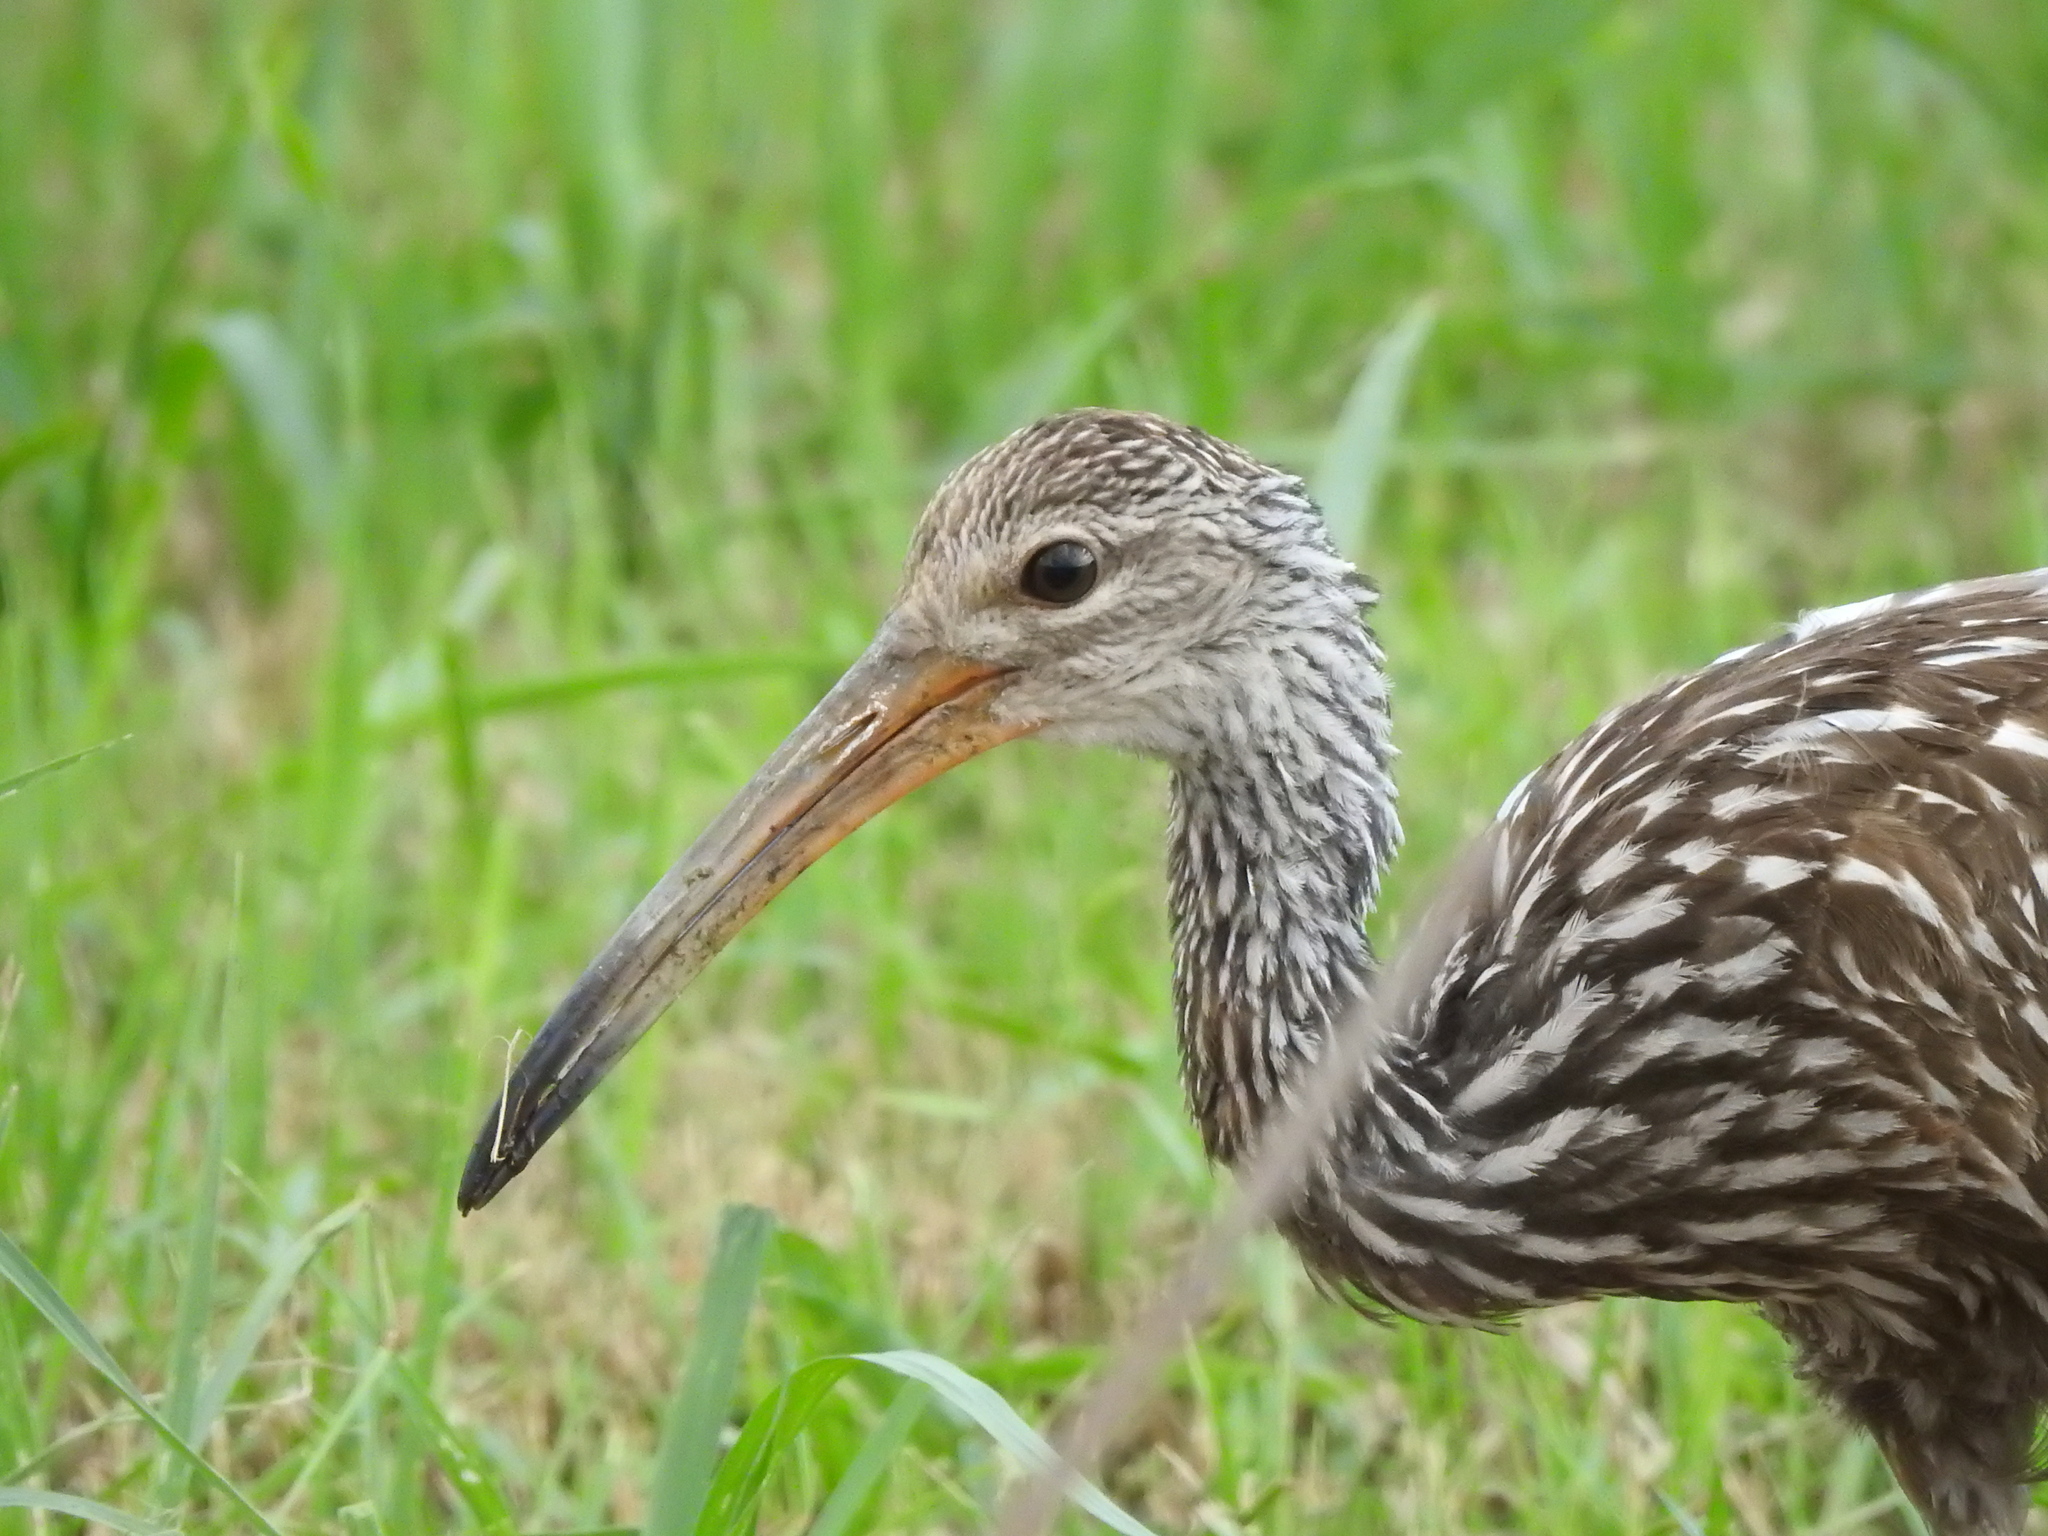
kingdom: Animalia
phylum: Chordata
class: Aves
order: Gruiformes
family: Aramidae
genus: Aramus
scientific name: Aramus guarauna
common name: Limpkin
